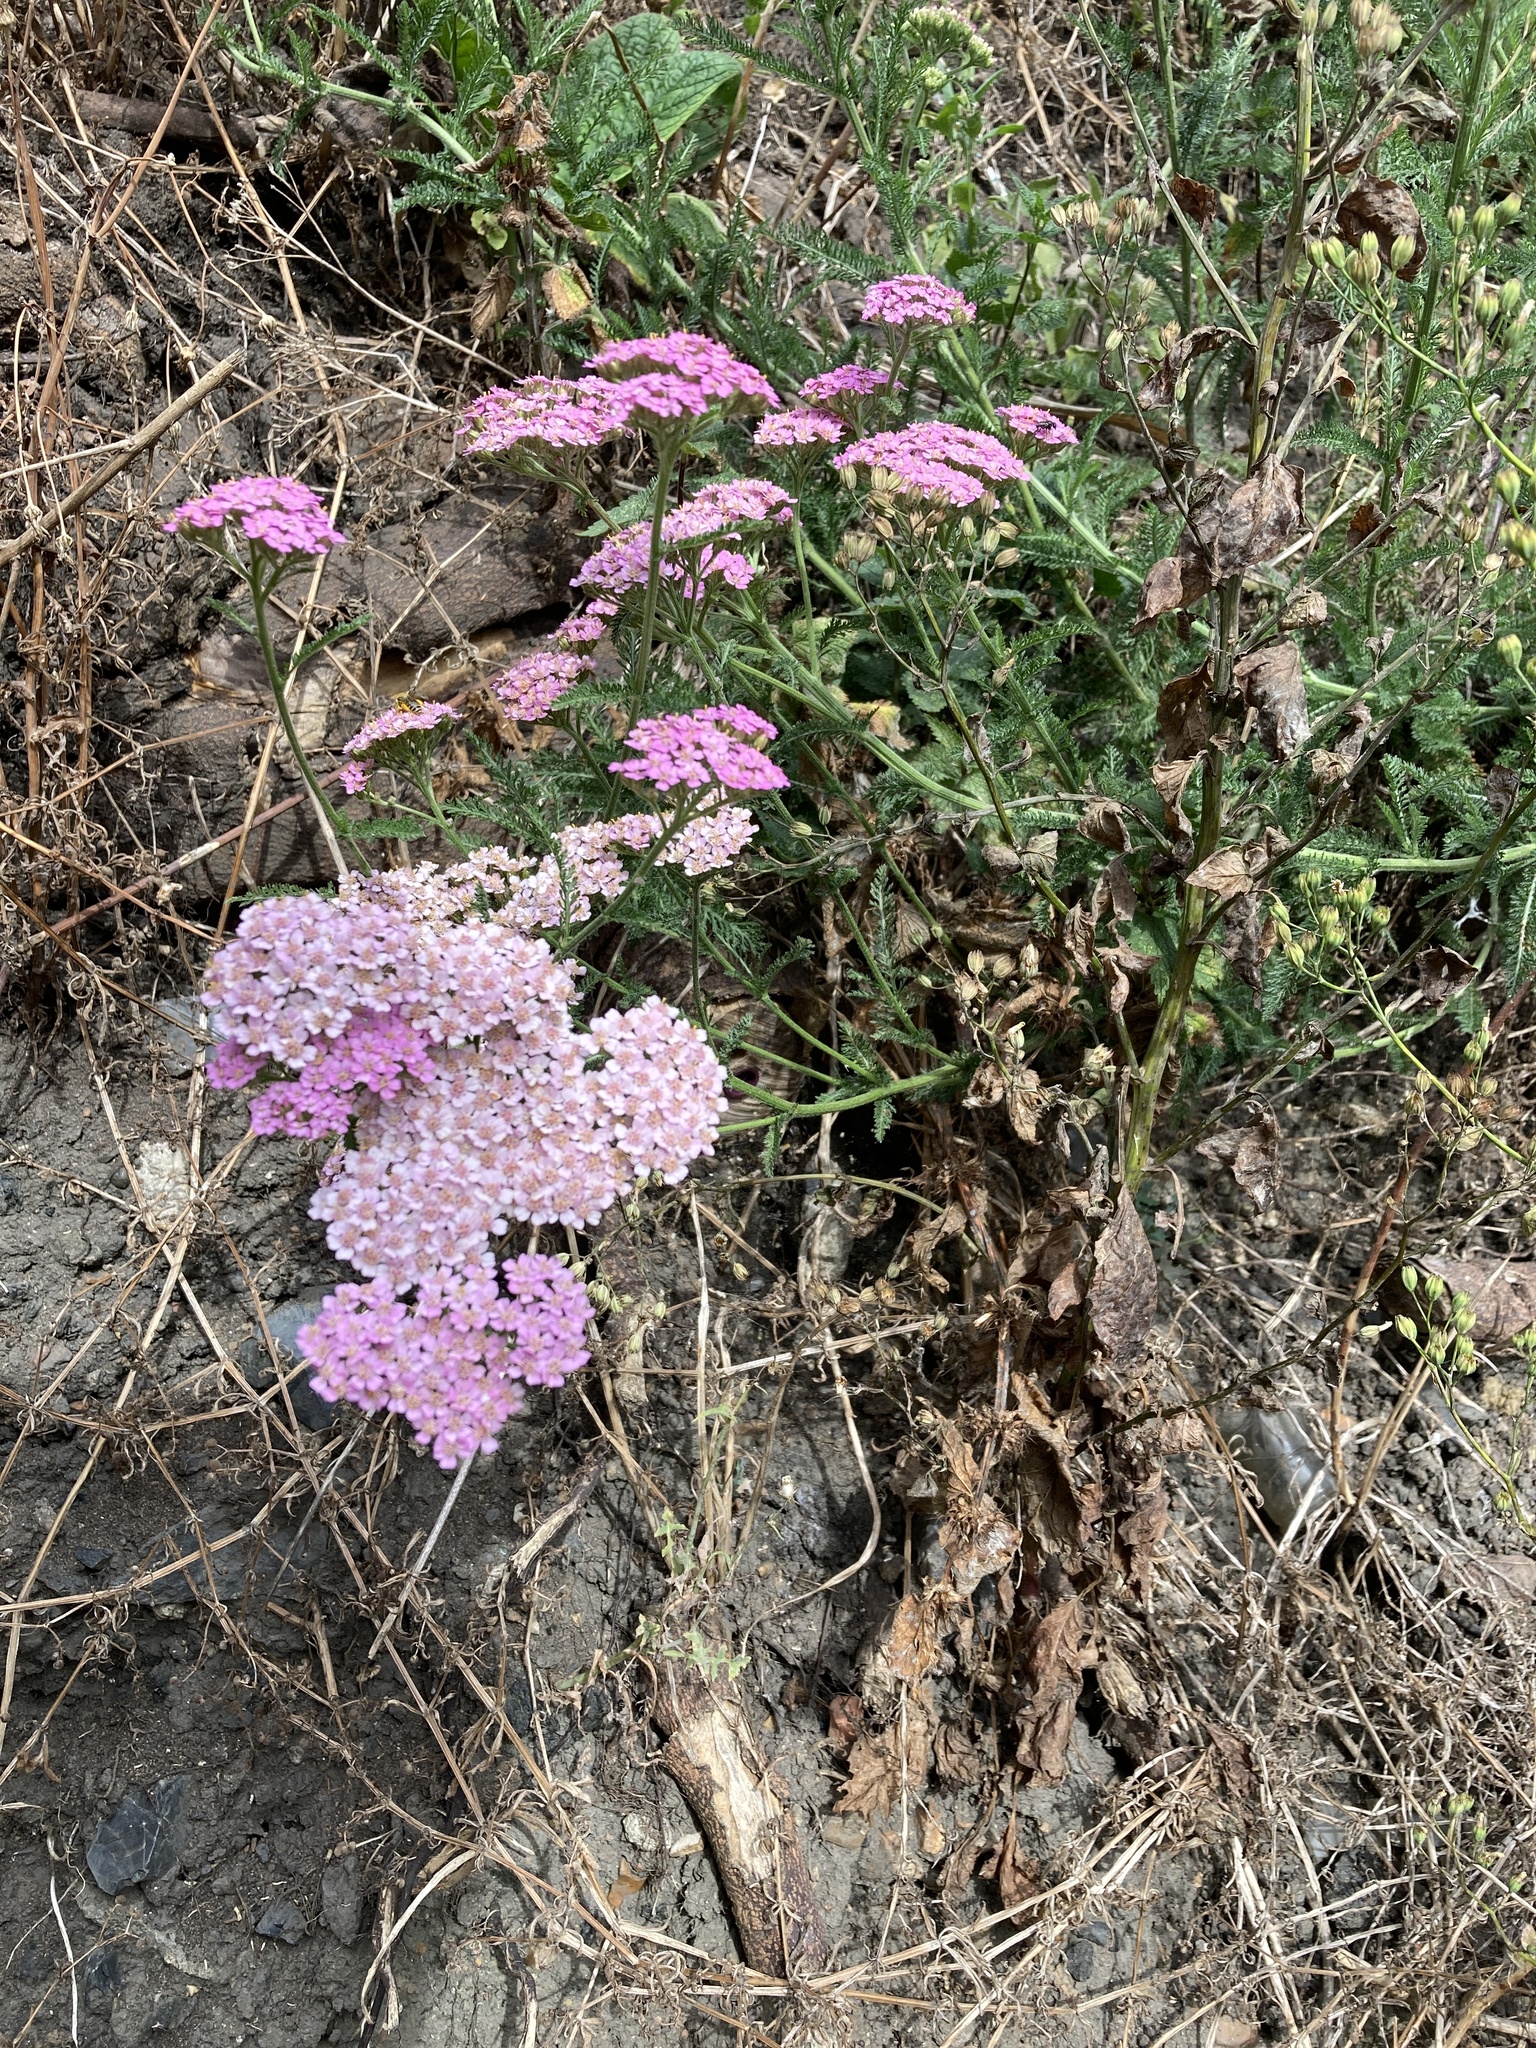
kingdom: Plantae
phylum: Tracheophyta
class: Magnoliopsida
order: Asterales
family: Asteraceae
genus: Achillea
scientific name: Achillea millefolium
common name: Yarrow
